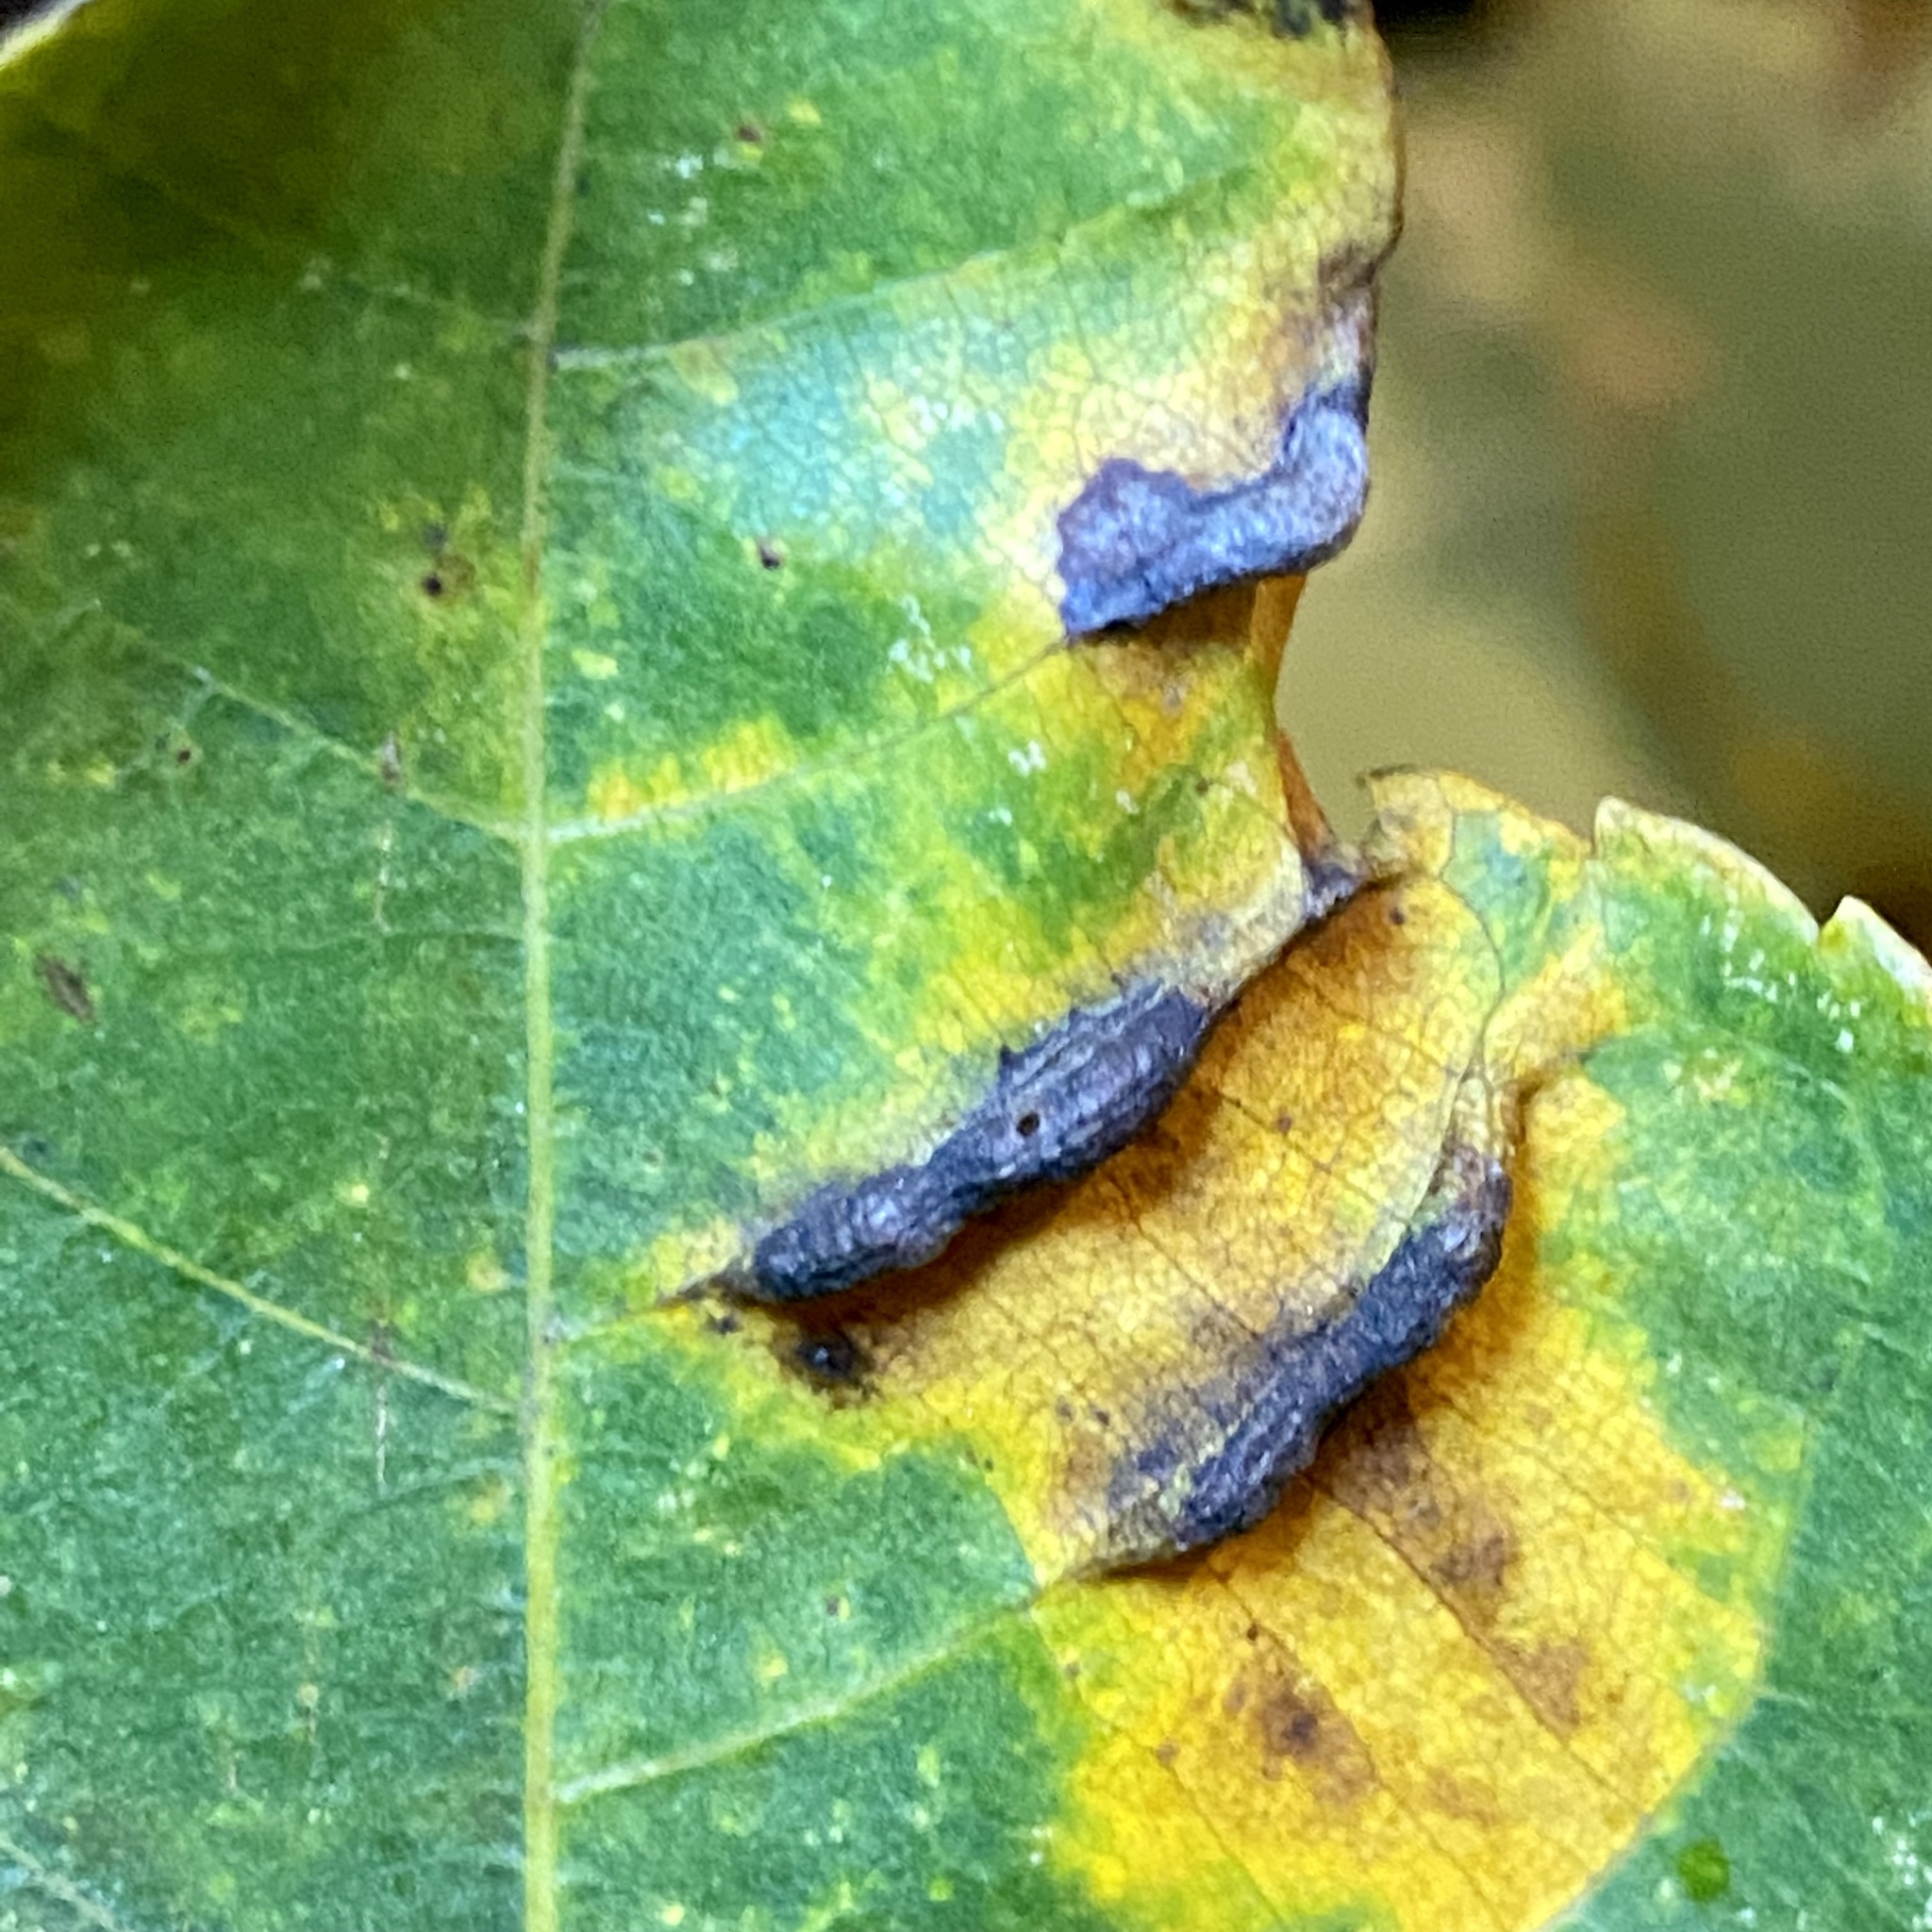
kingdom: Animalia
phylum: Arthropoda
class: Insecta
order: Hemiptera
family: Phylloxeridae
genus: Phylloxera
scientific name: Phylloxera caryaevenae
